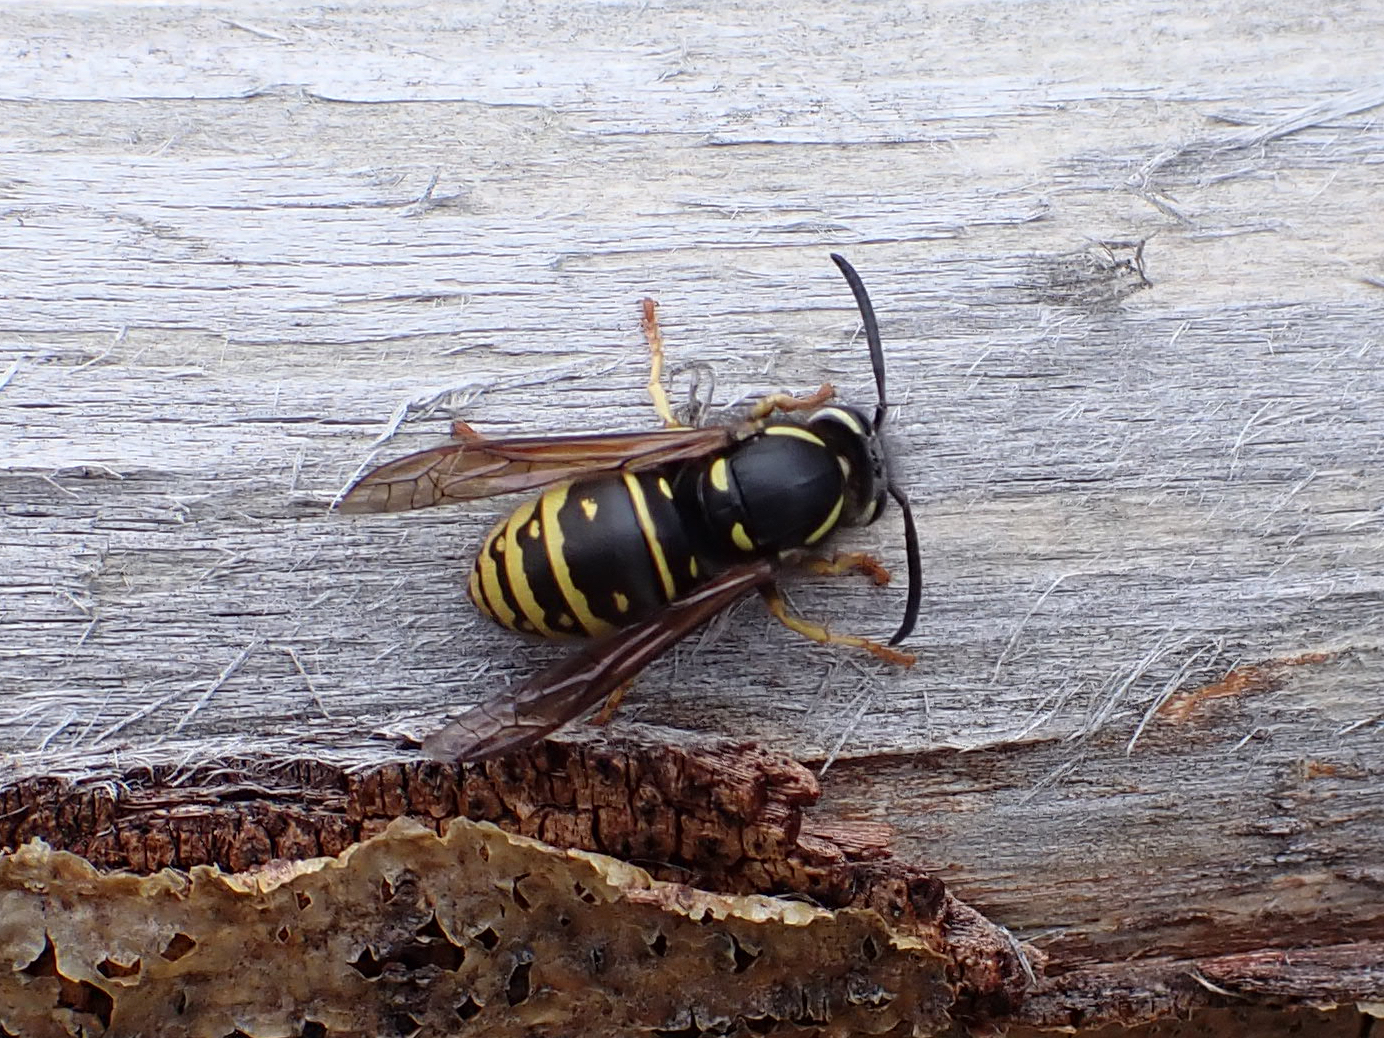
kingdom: Animalia
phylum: Arthropoda
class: Insecta
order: Hymenoptera
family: Vespidae
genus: Vespula
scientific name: Vespula acadica
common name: Forest yellowjacket
